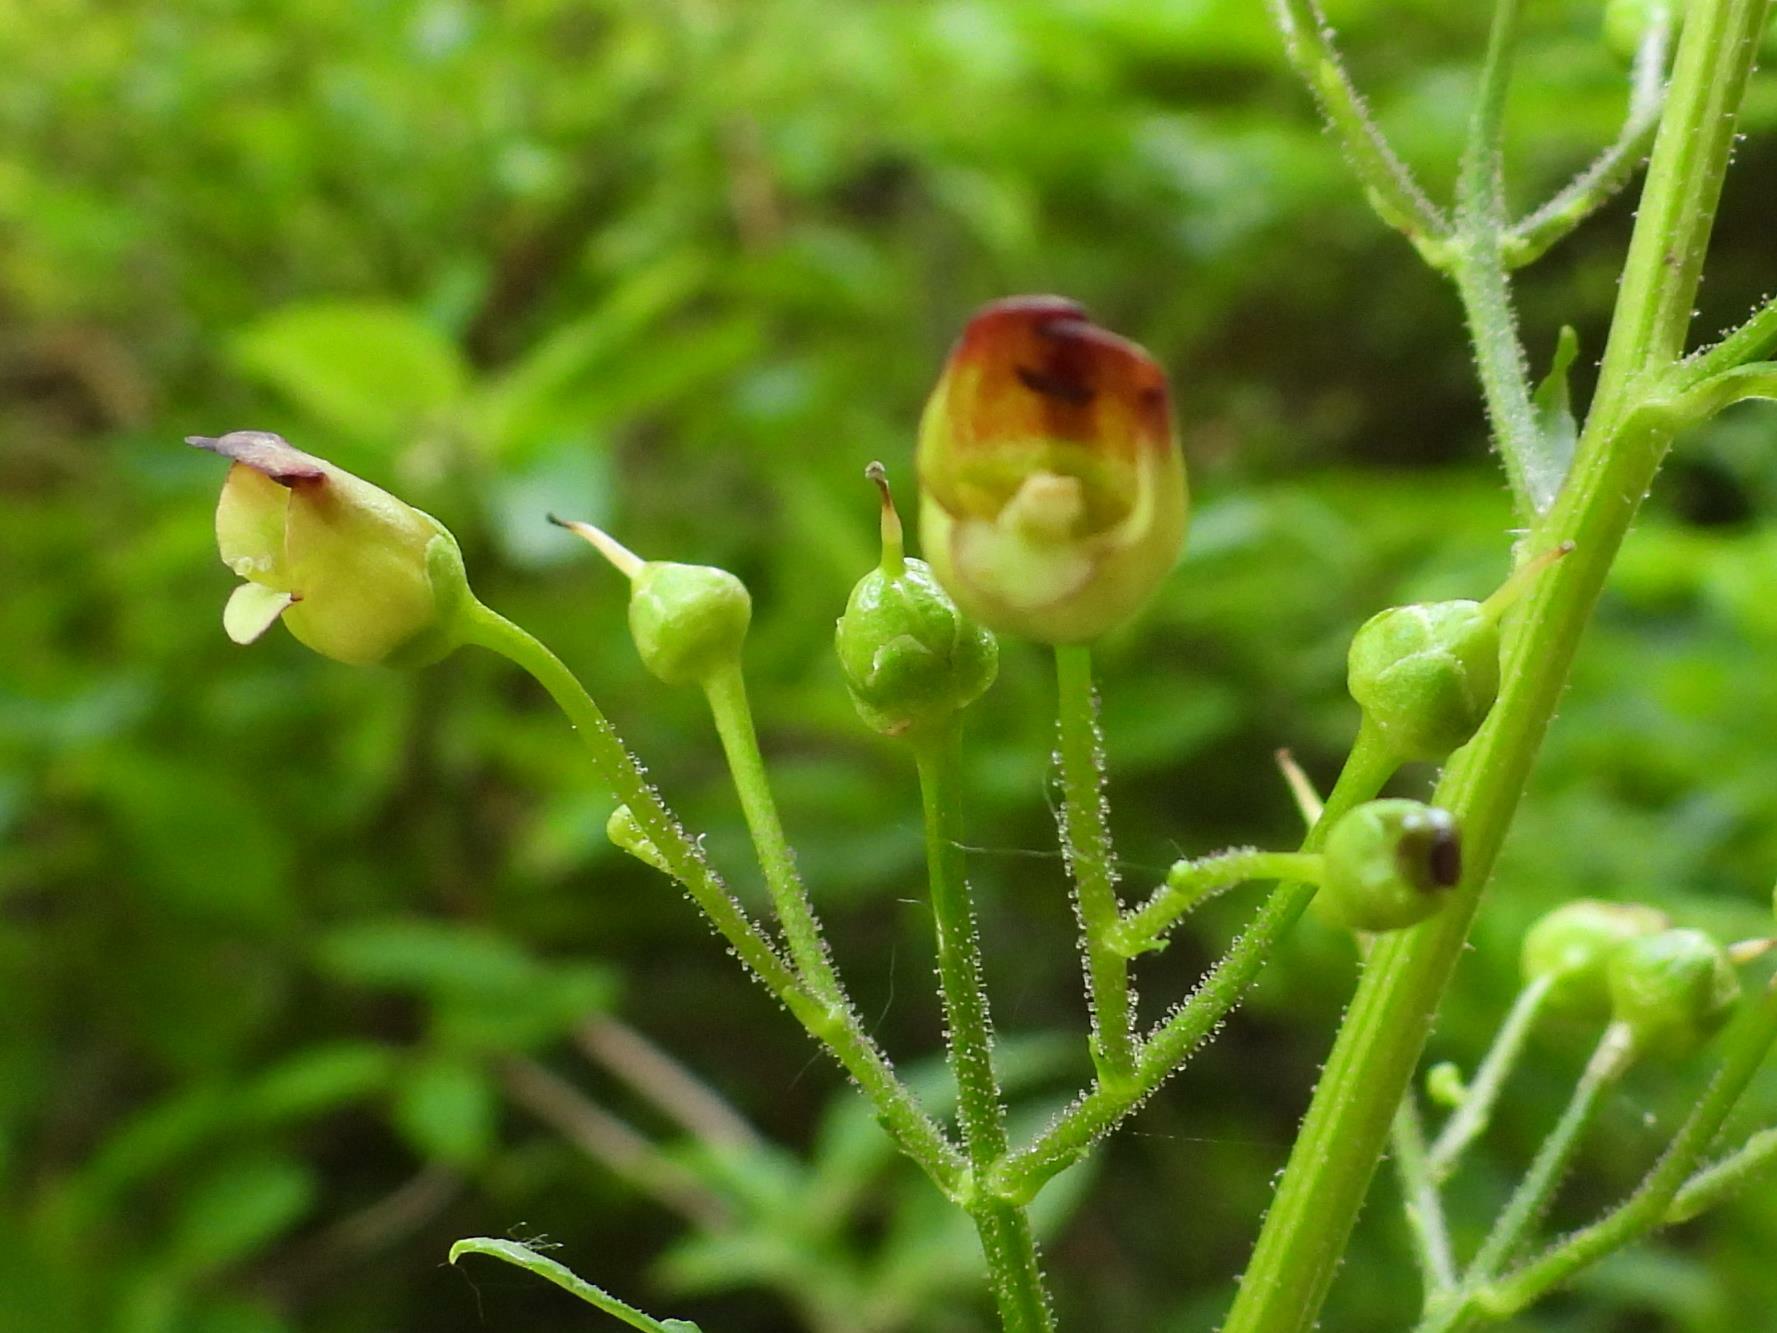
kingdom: Plantae
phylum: Tracheophyta
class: Magnoliopsida
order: Lamiales
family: Scrophulariaceae
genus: Scrophularia
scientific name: Scrophularia nodosa
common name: Common figwort
